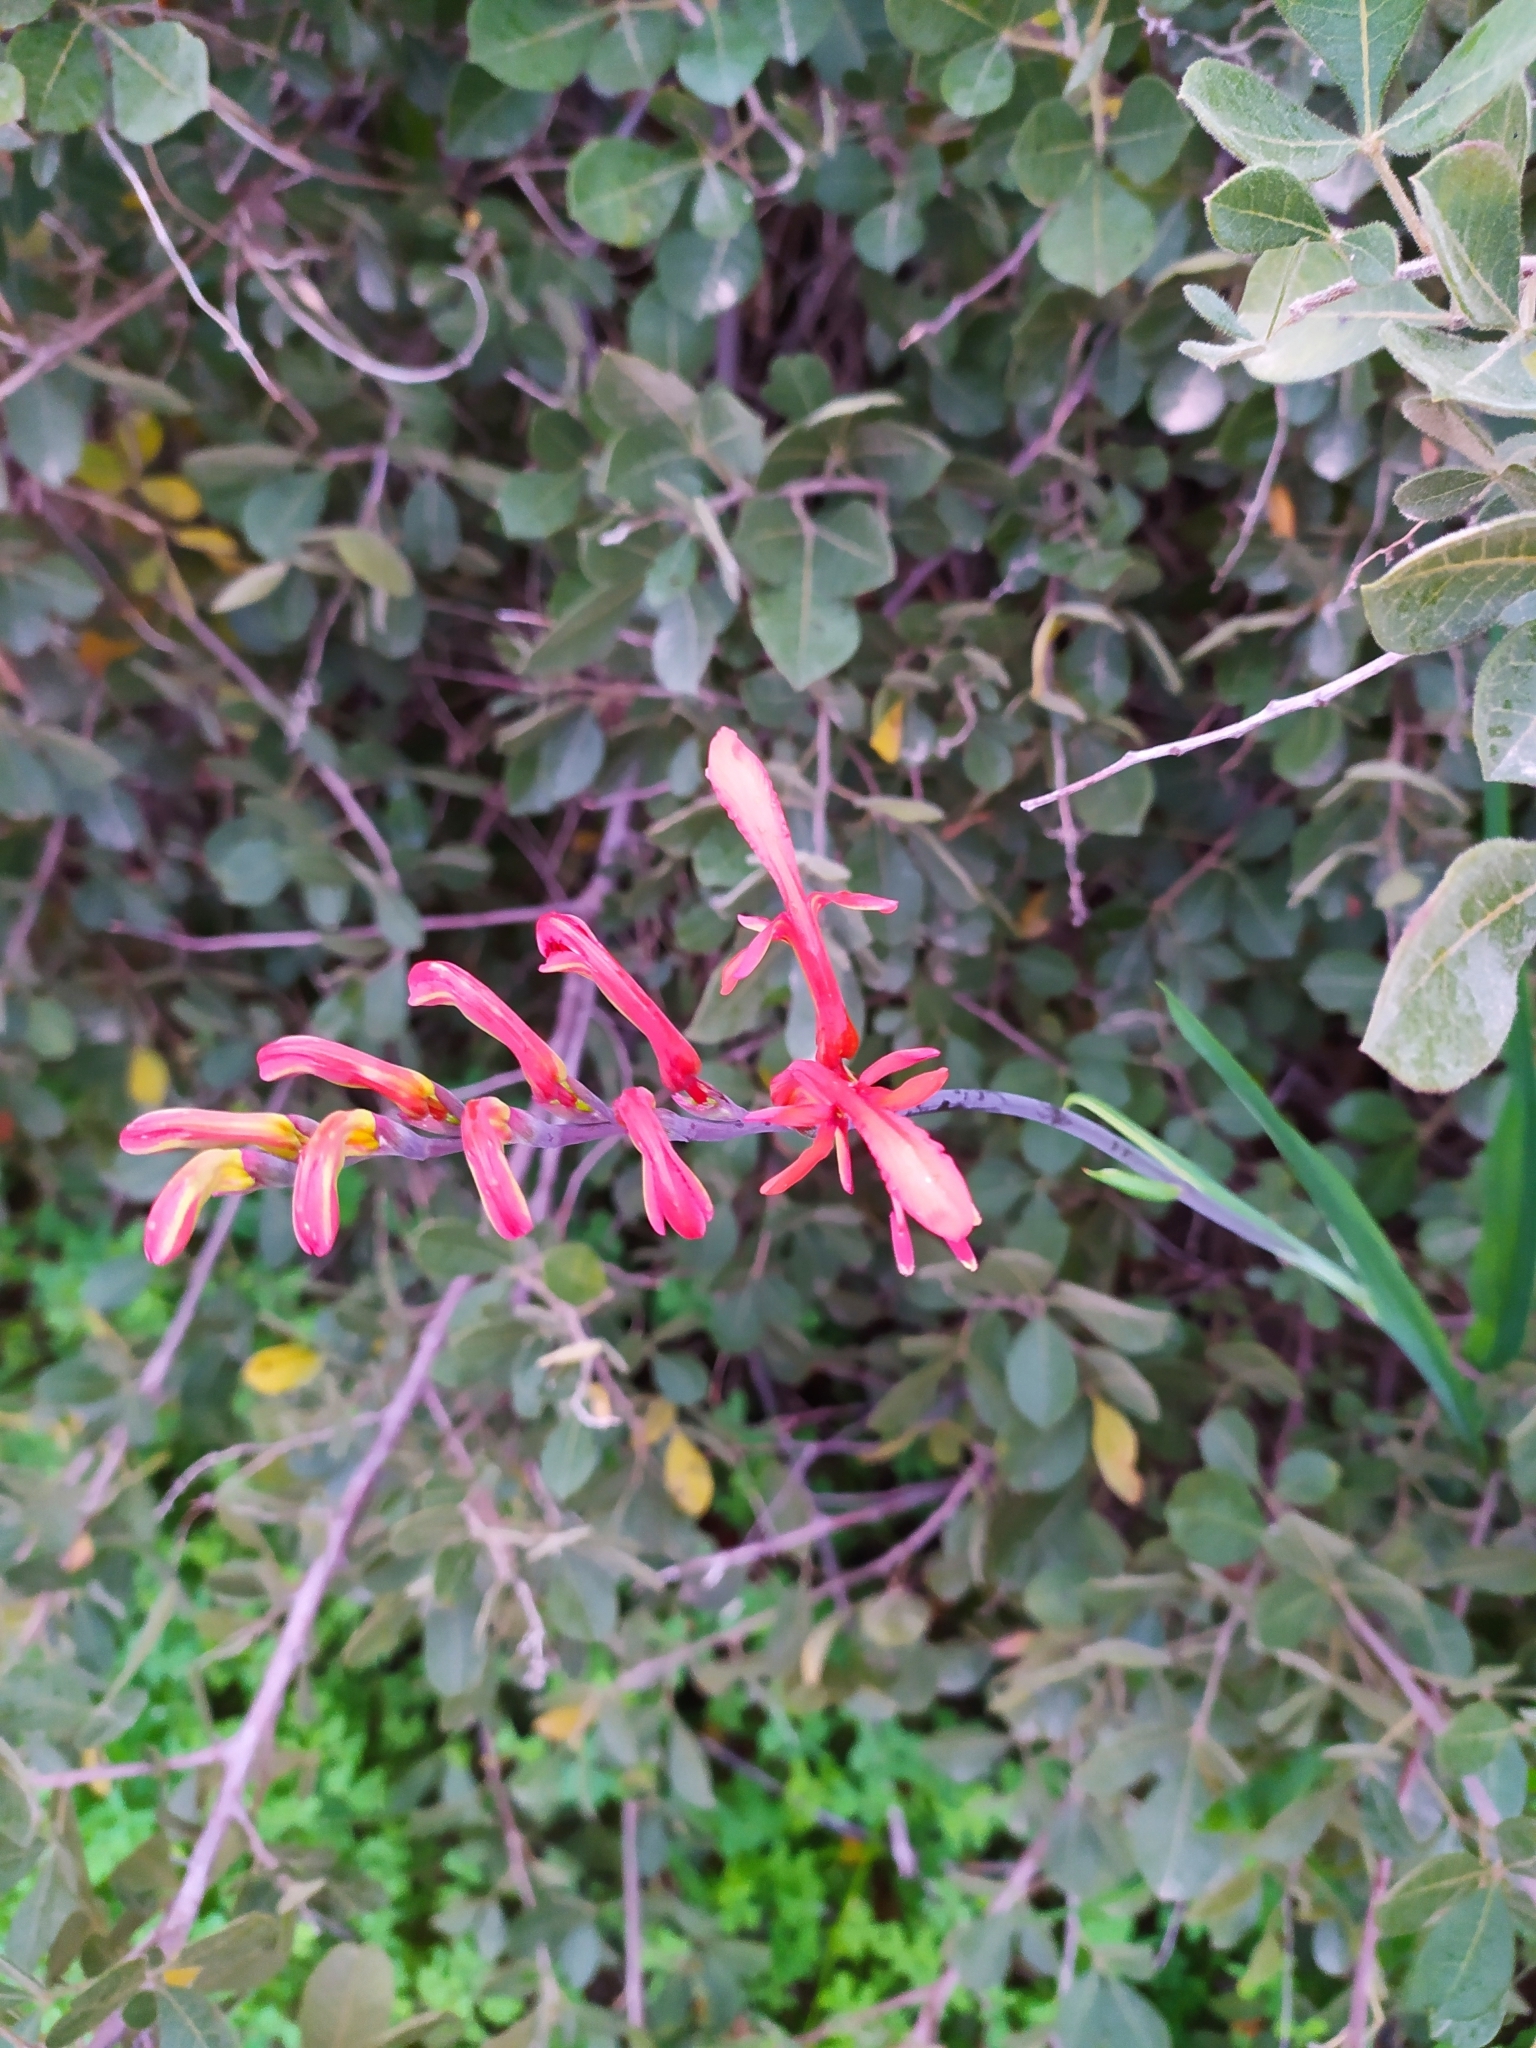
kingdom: Plantae
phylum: Tracheophyta
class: Liliopsida
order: Asparagales
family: Iridaceae
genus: Chasmanthe
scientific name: Chasmanthe aethiopica
